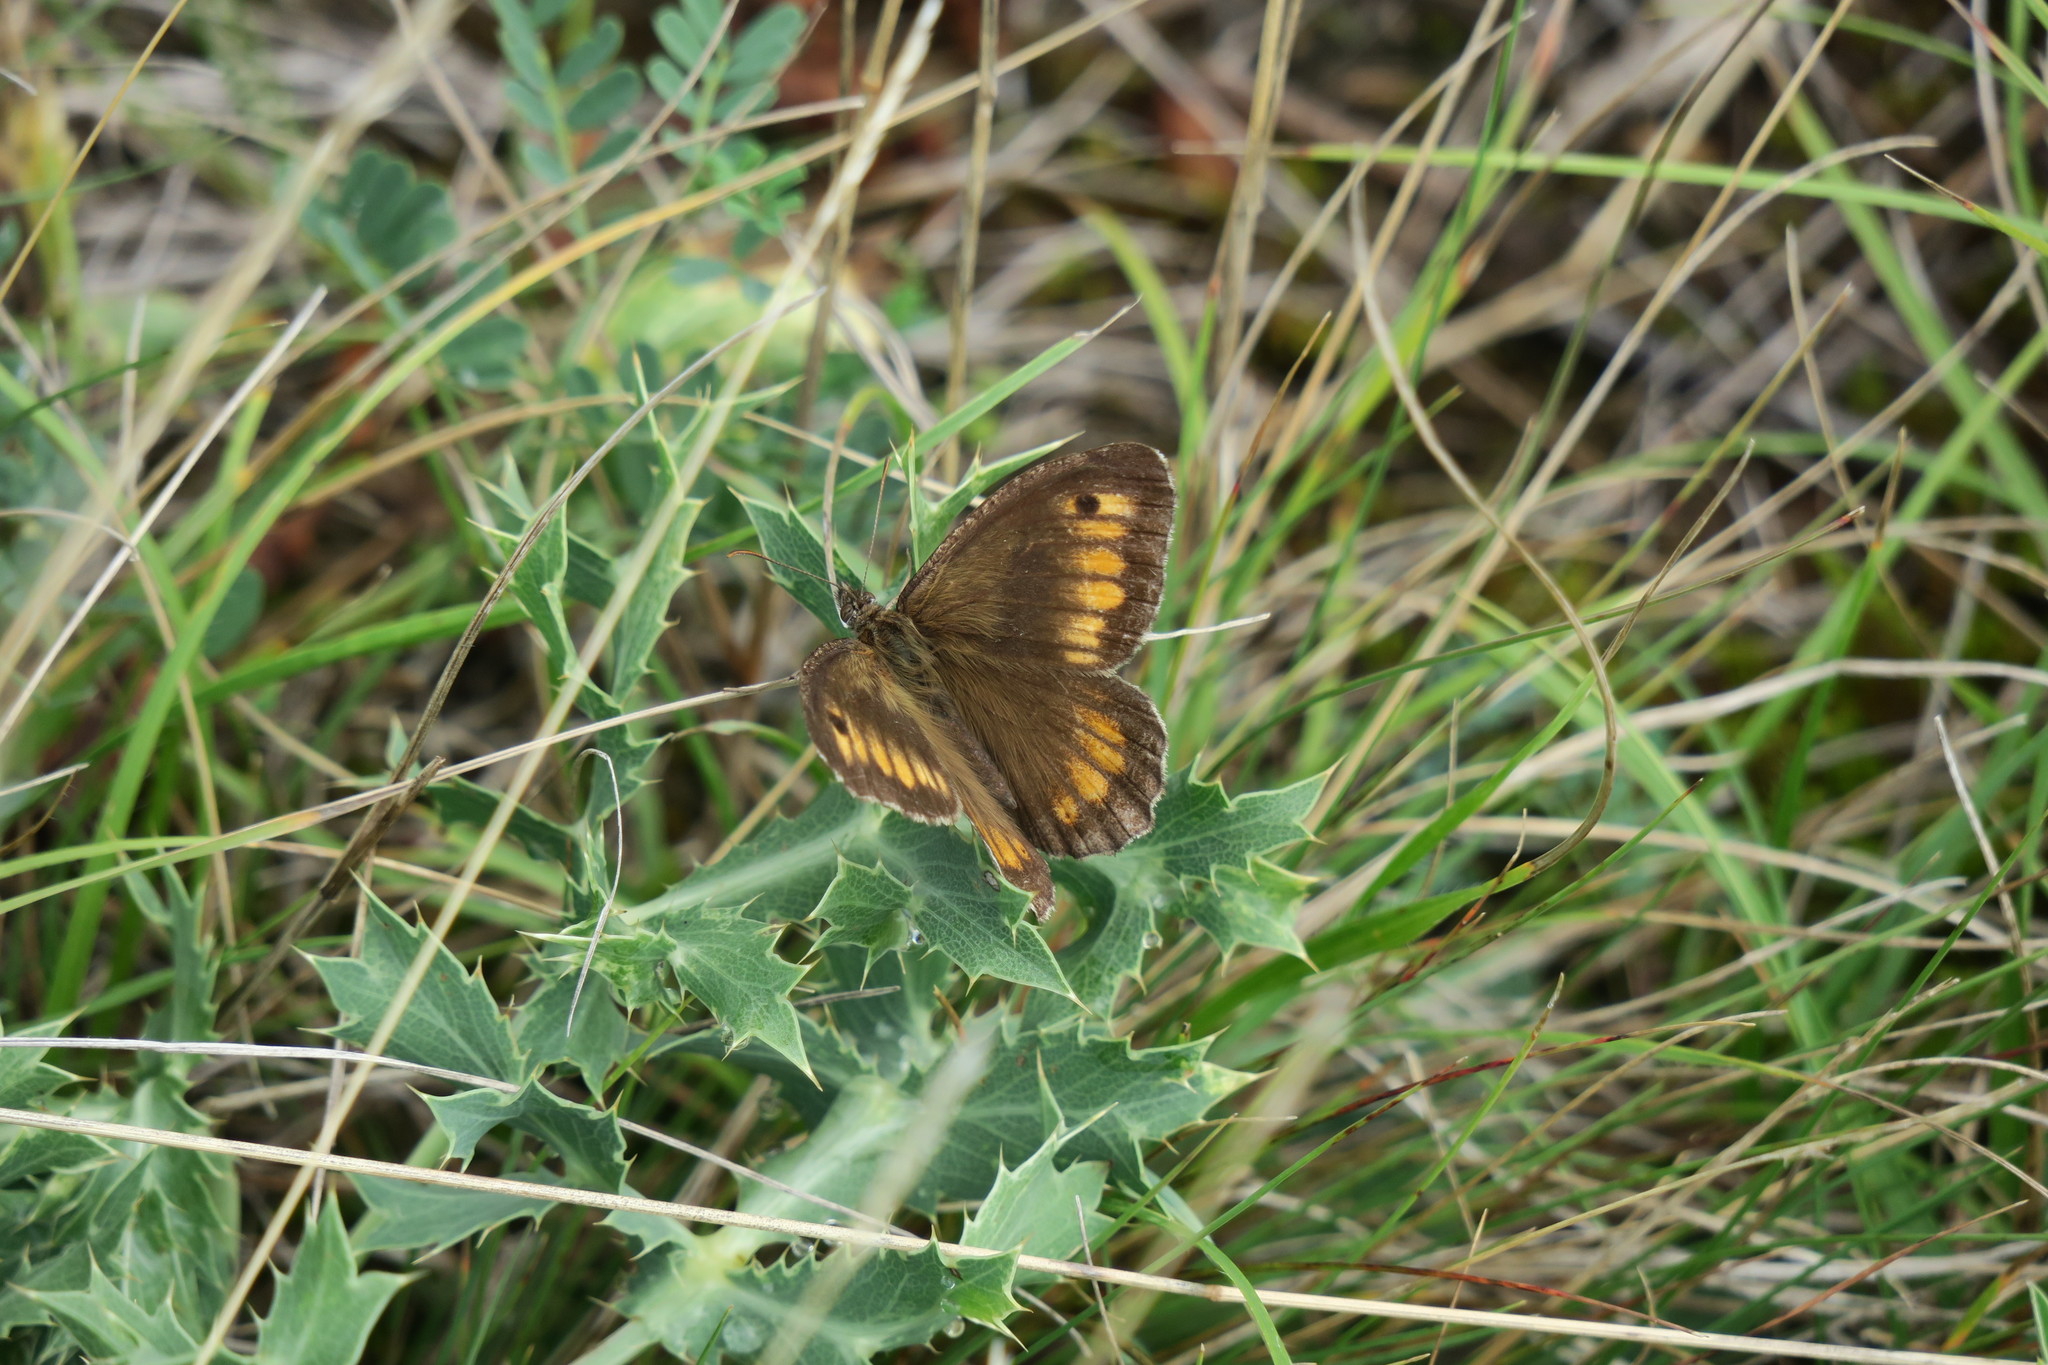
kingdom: Animalia
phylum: Arthropoda
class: Insecta
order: Lepidoptera
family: Nymphalidae
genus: Arethusana
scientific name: Arethusana arethusa
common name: False grayling
